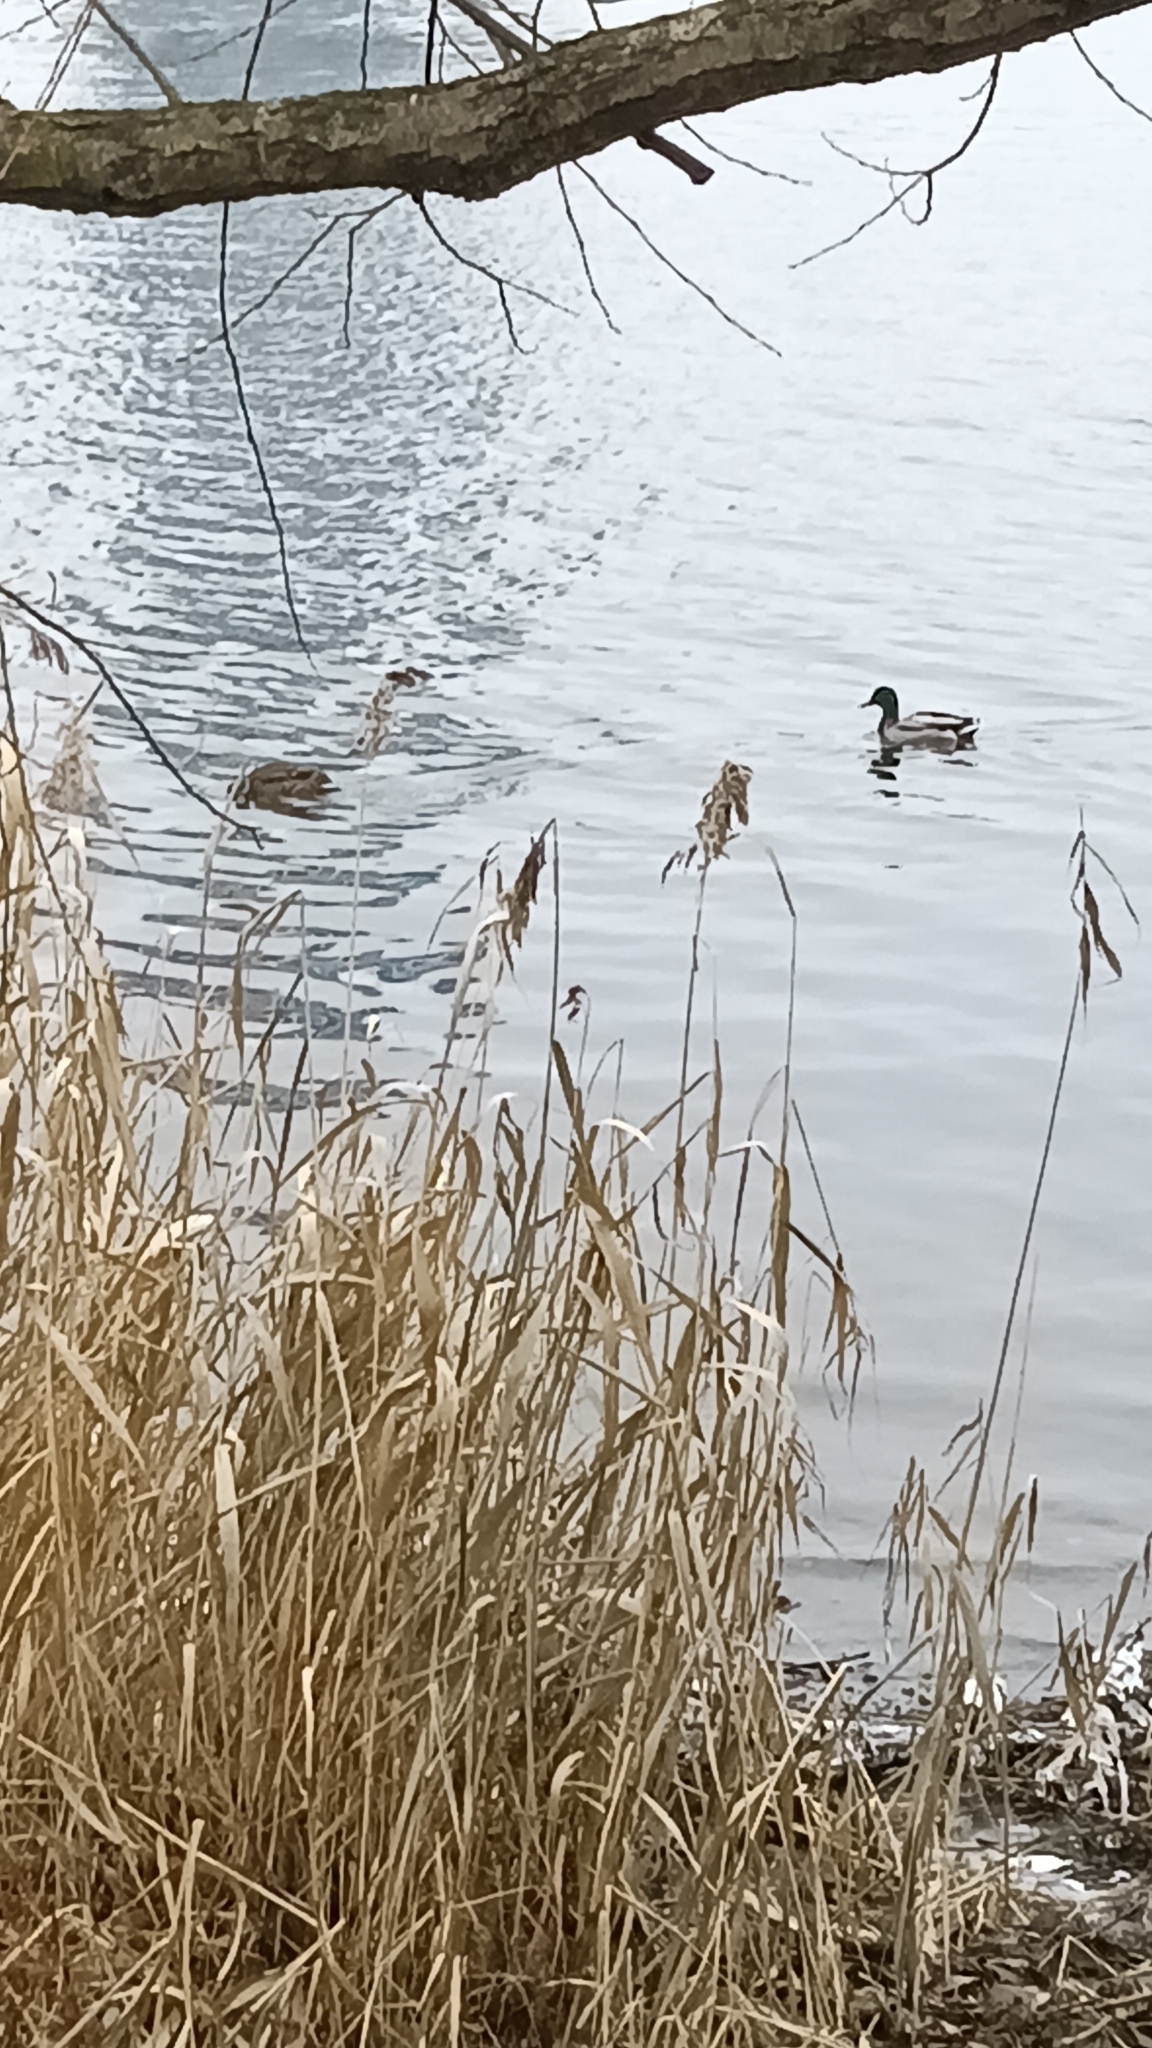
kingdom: Animalia
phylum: Chordata
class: Aves
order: Anseriformes
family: Anatidae
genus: Anas
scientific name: Anas platyrhynchos
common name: Mallard
